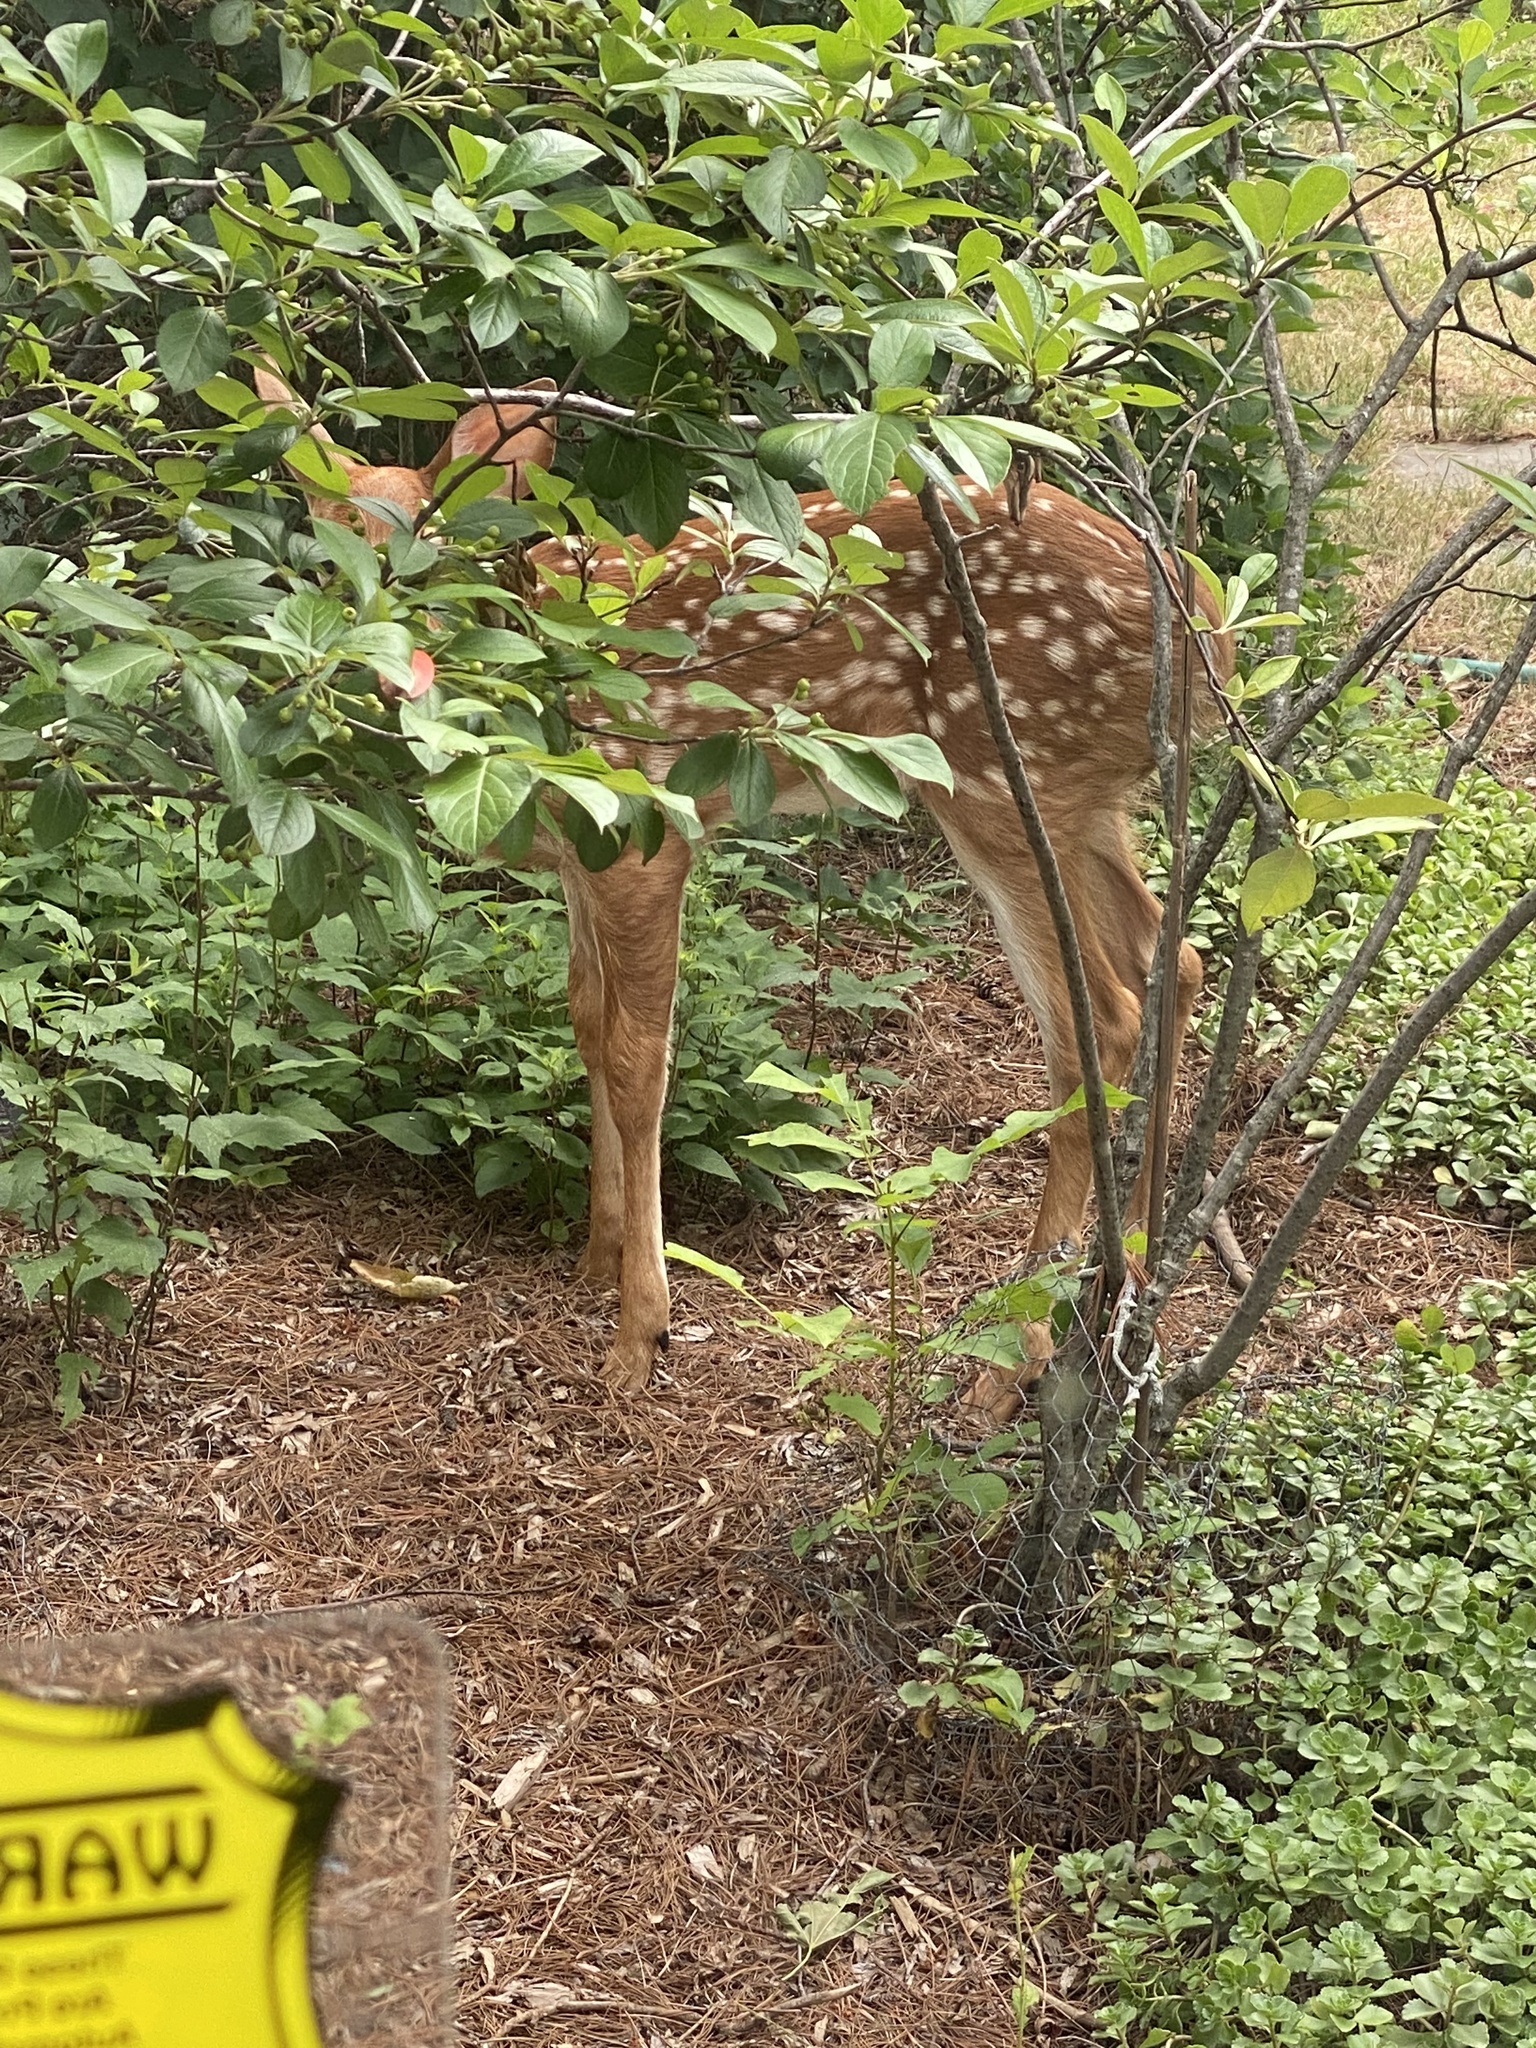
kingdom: Animalia
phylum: Chordata
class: Mammalia
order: Artiodactyla
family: Cervidae
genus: Odocoileus
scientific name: Odocoileus virginianus
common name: White-tailed deer
